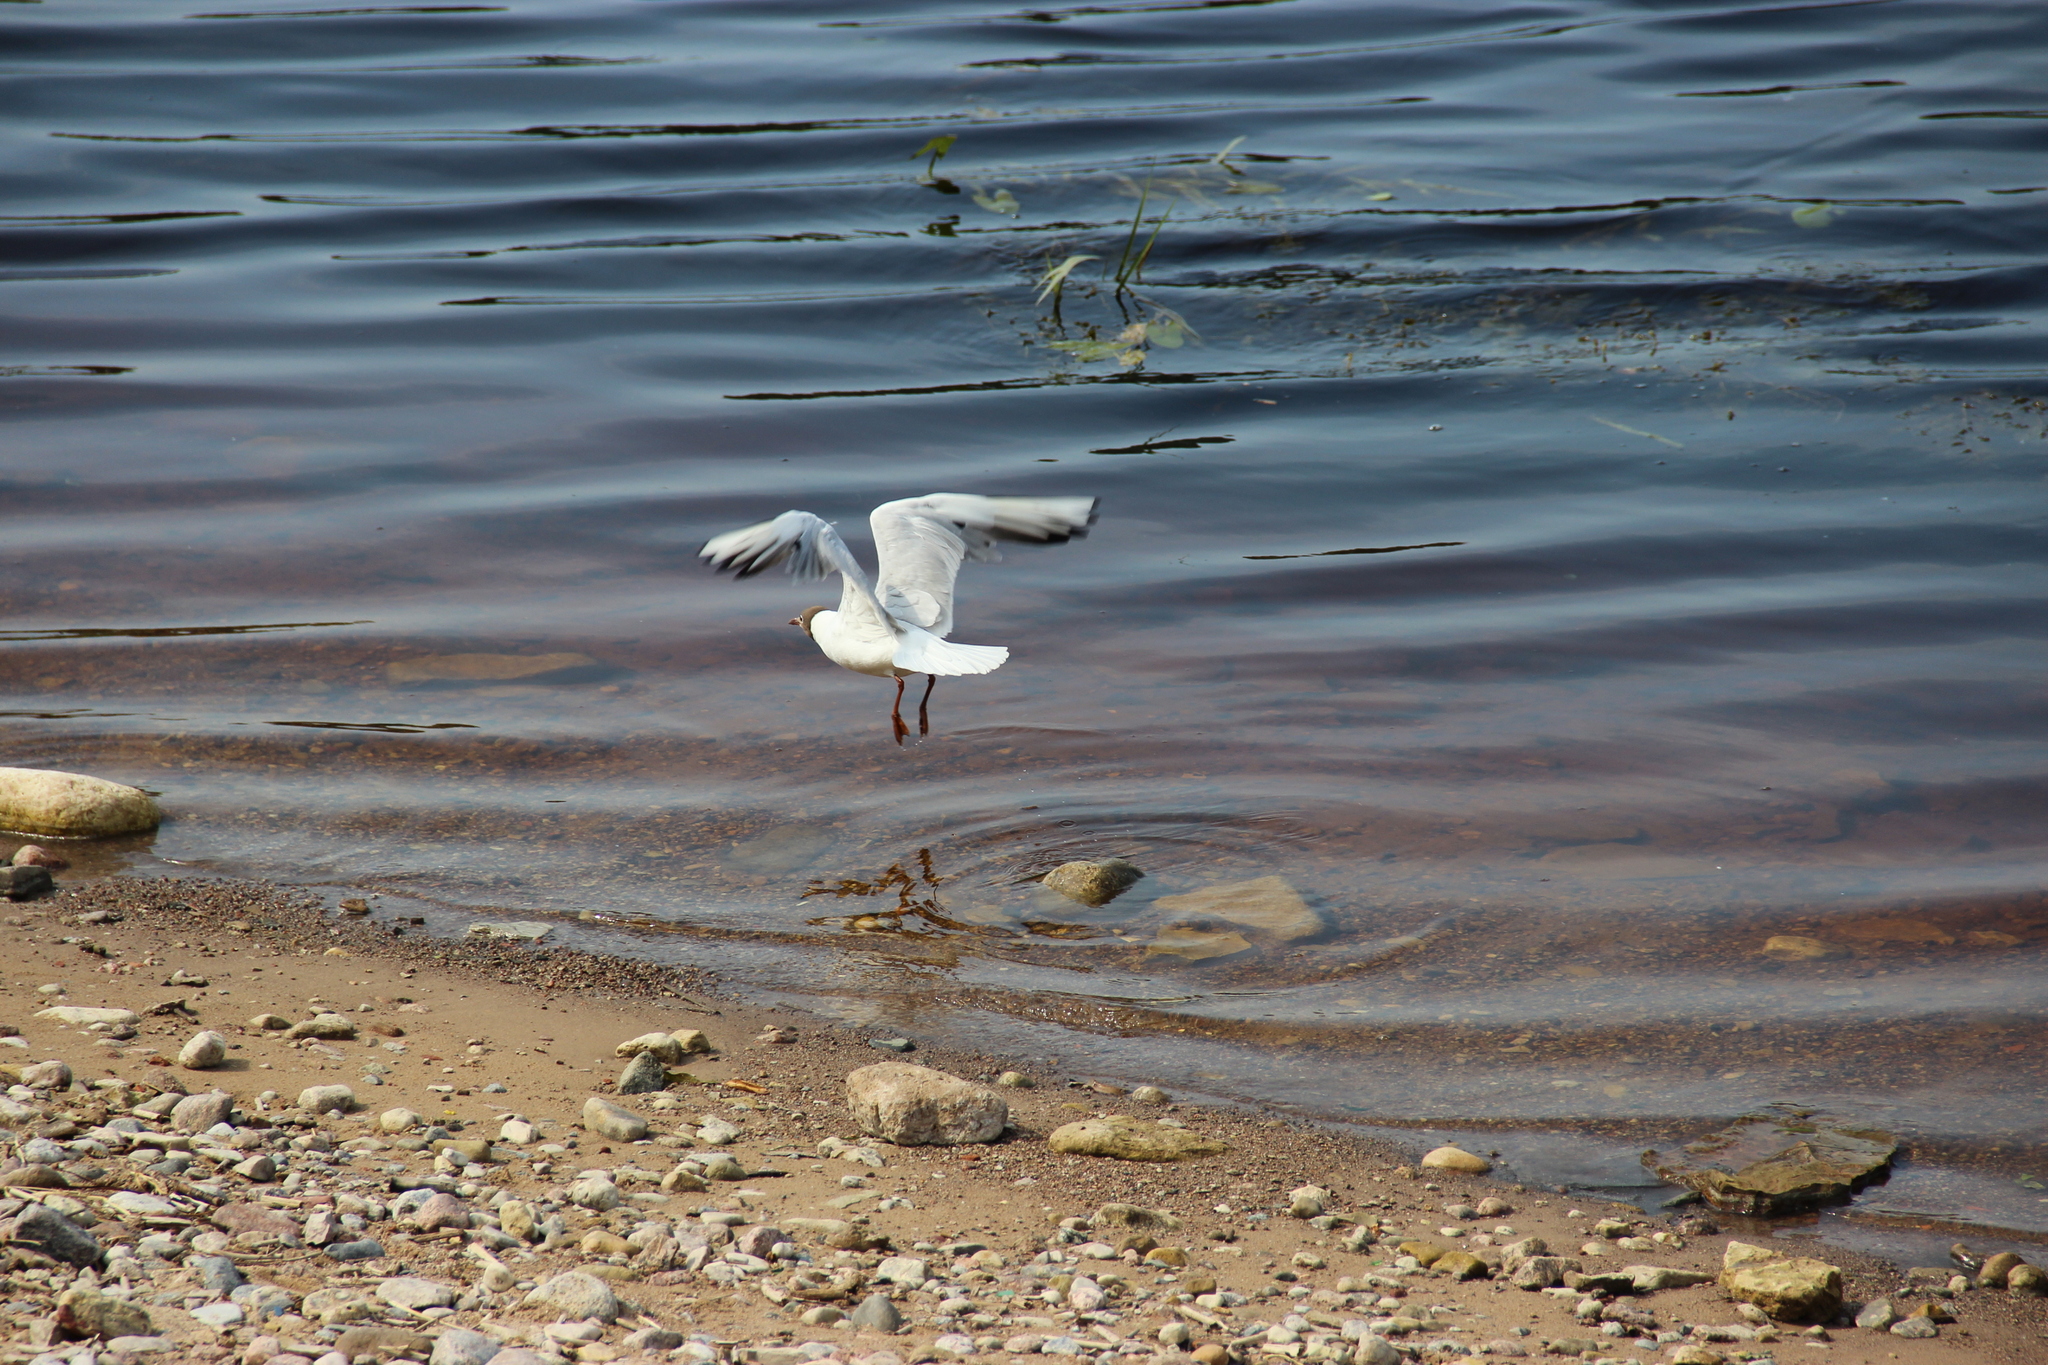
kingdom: Animalia
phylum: Chordata
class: Aves
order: Charadriiformes
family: Laridae
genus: Chroicocephalus
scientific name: Chroicocephalus ridibundus
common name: Black-headed gull
